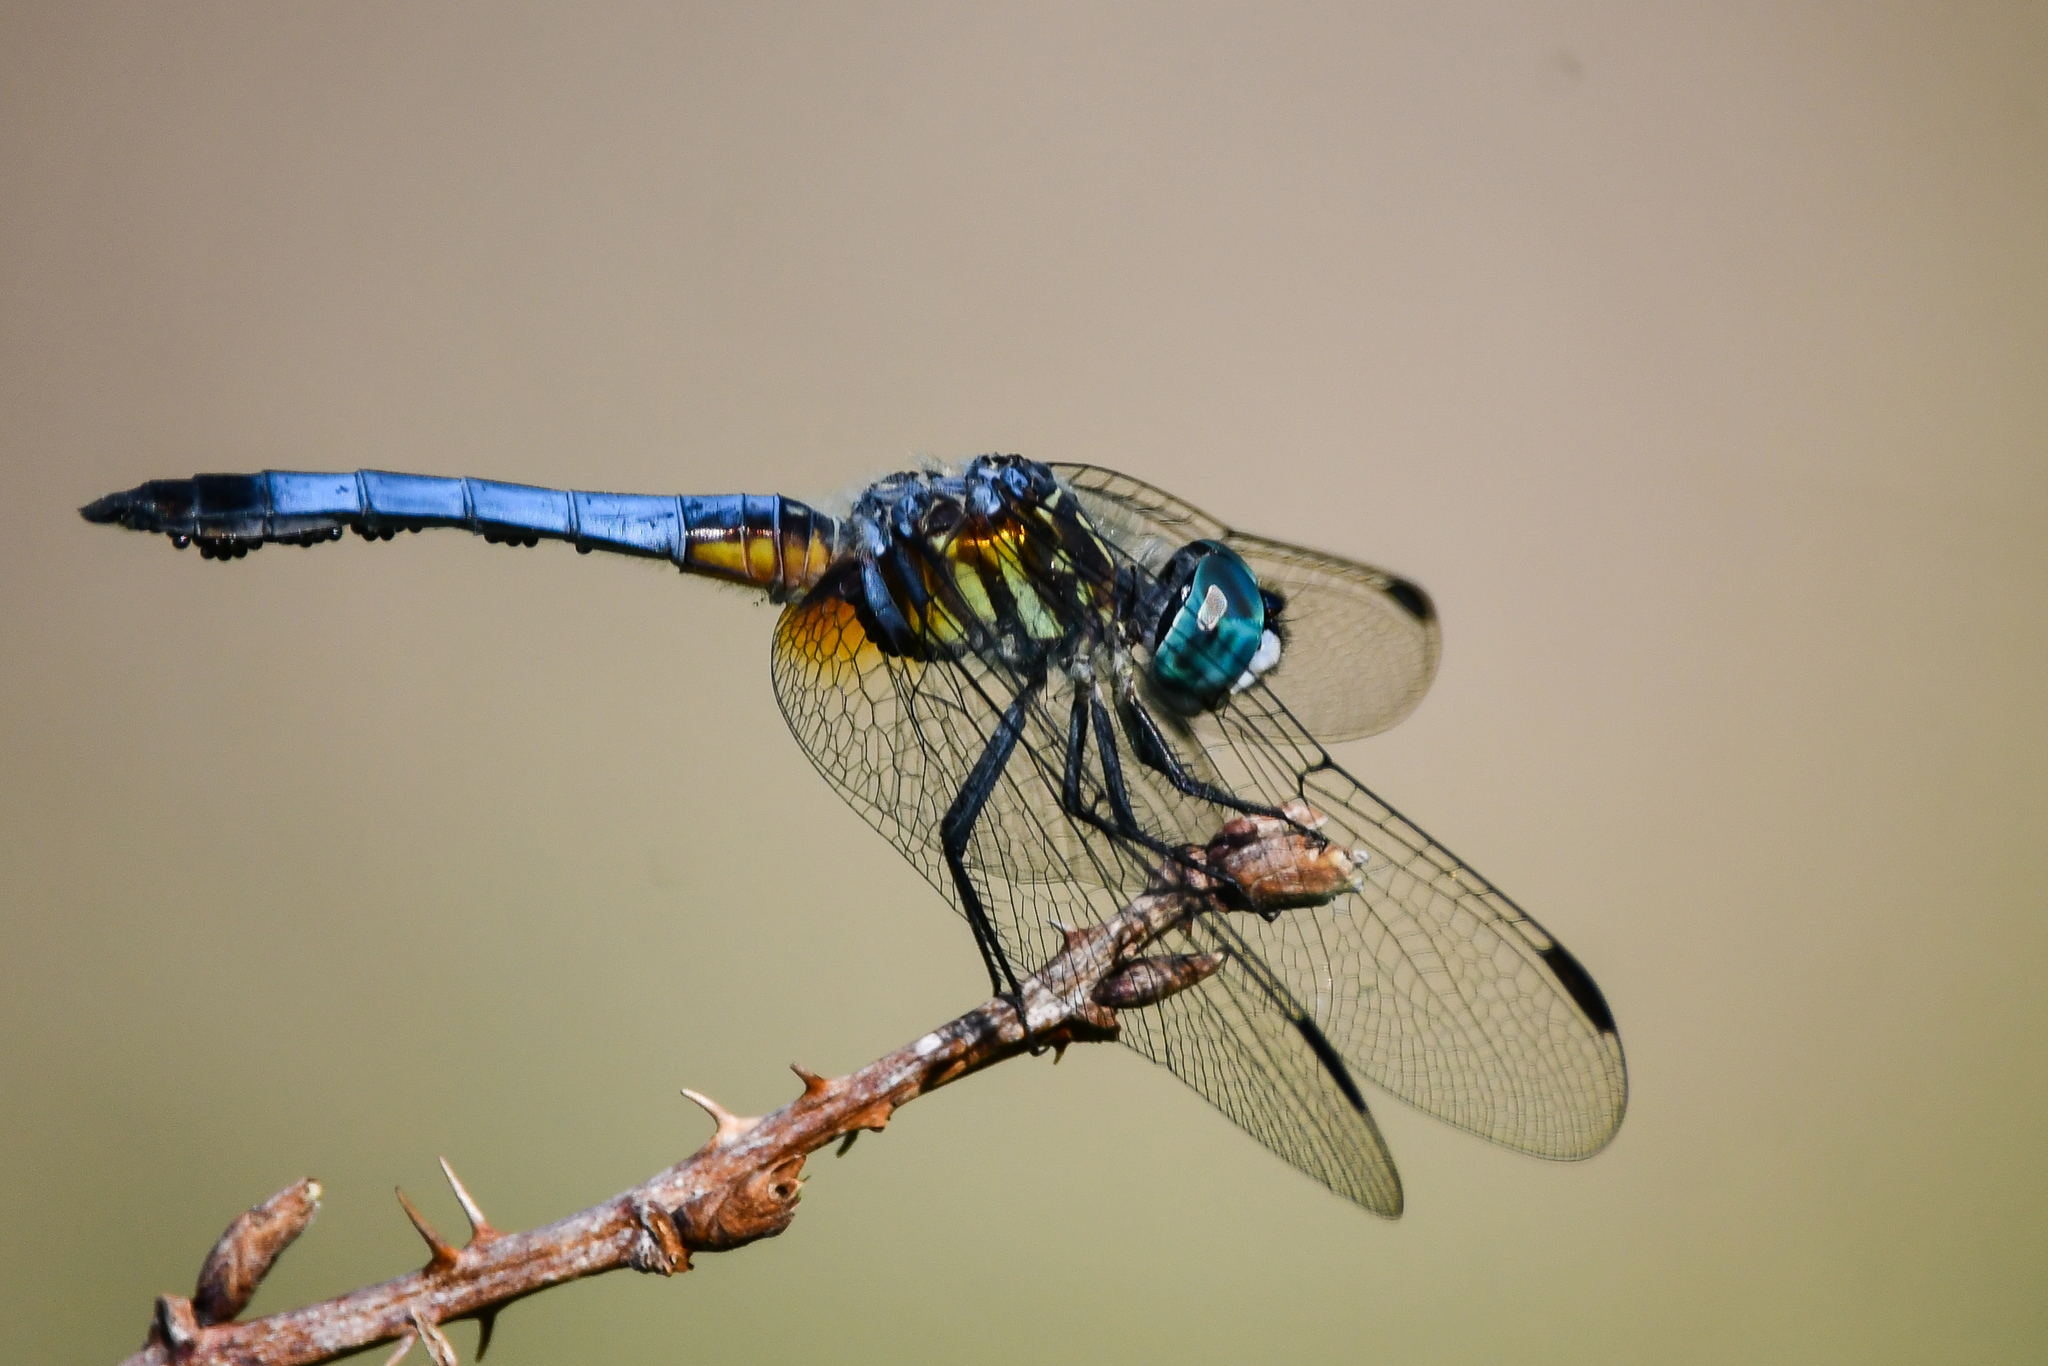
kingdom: Animalia
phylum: Arthropoda
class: Insecta
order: Odonata
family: Libellulidae
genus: Pachydiplax
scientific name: Pachydiplax longipennis
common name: Blue dasher
